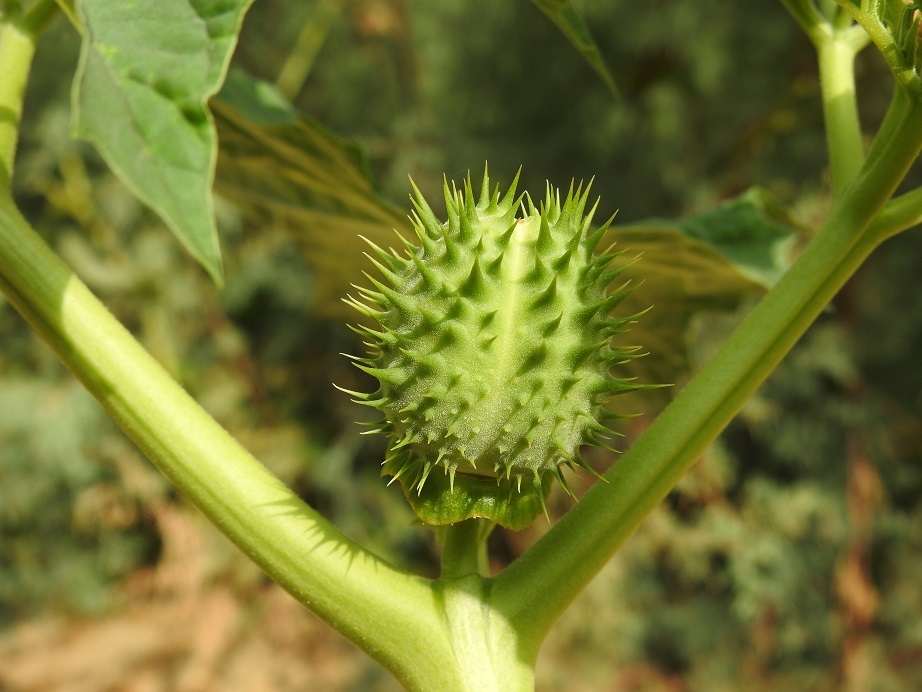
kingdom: Plantae
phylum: Tracheophyta
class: Magnoliopsida
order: Solanales
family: Solanaceae
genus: Datura
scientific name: Datura stramonium
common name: Thorn-apple
